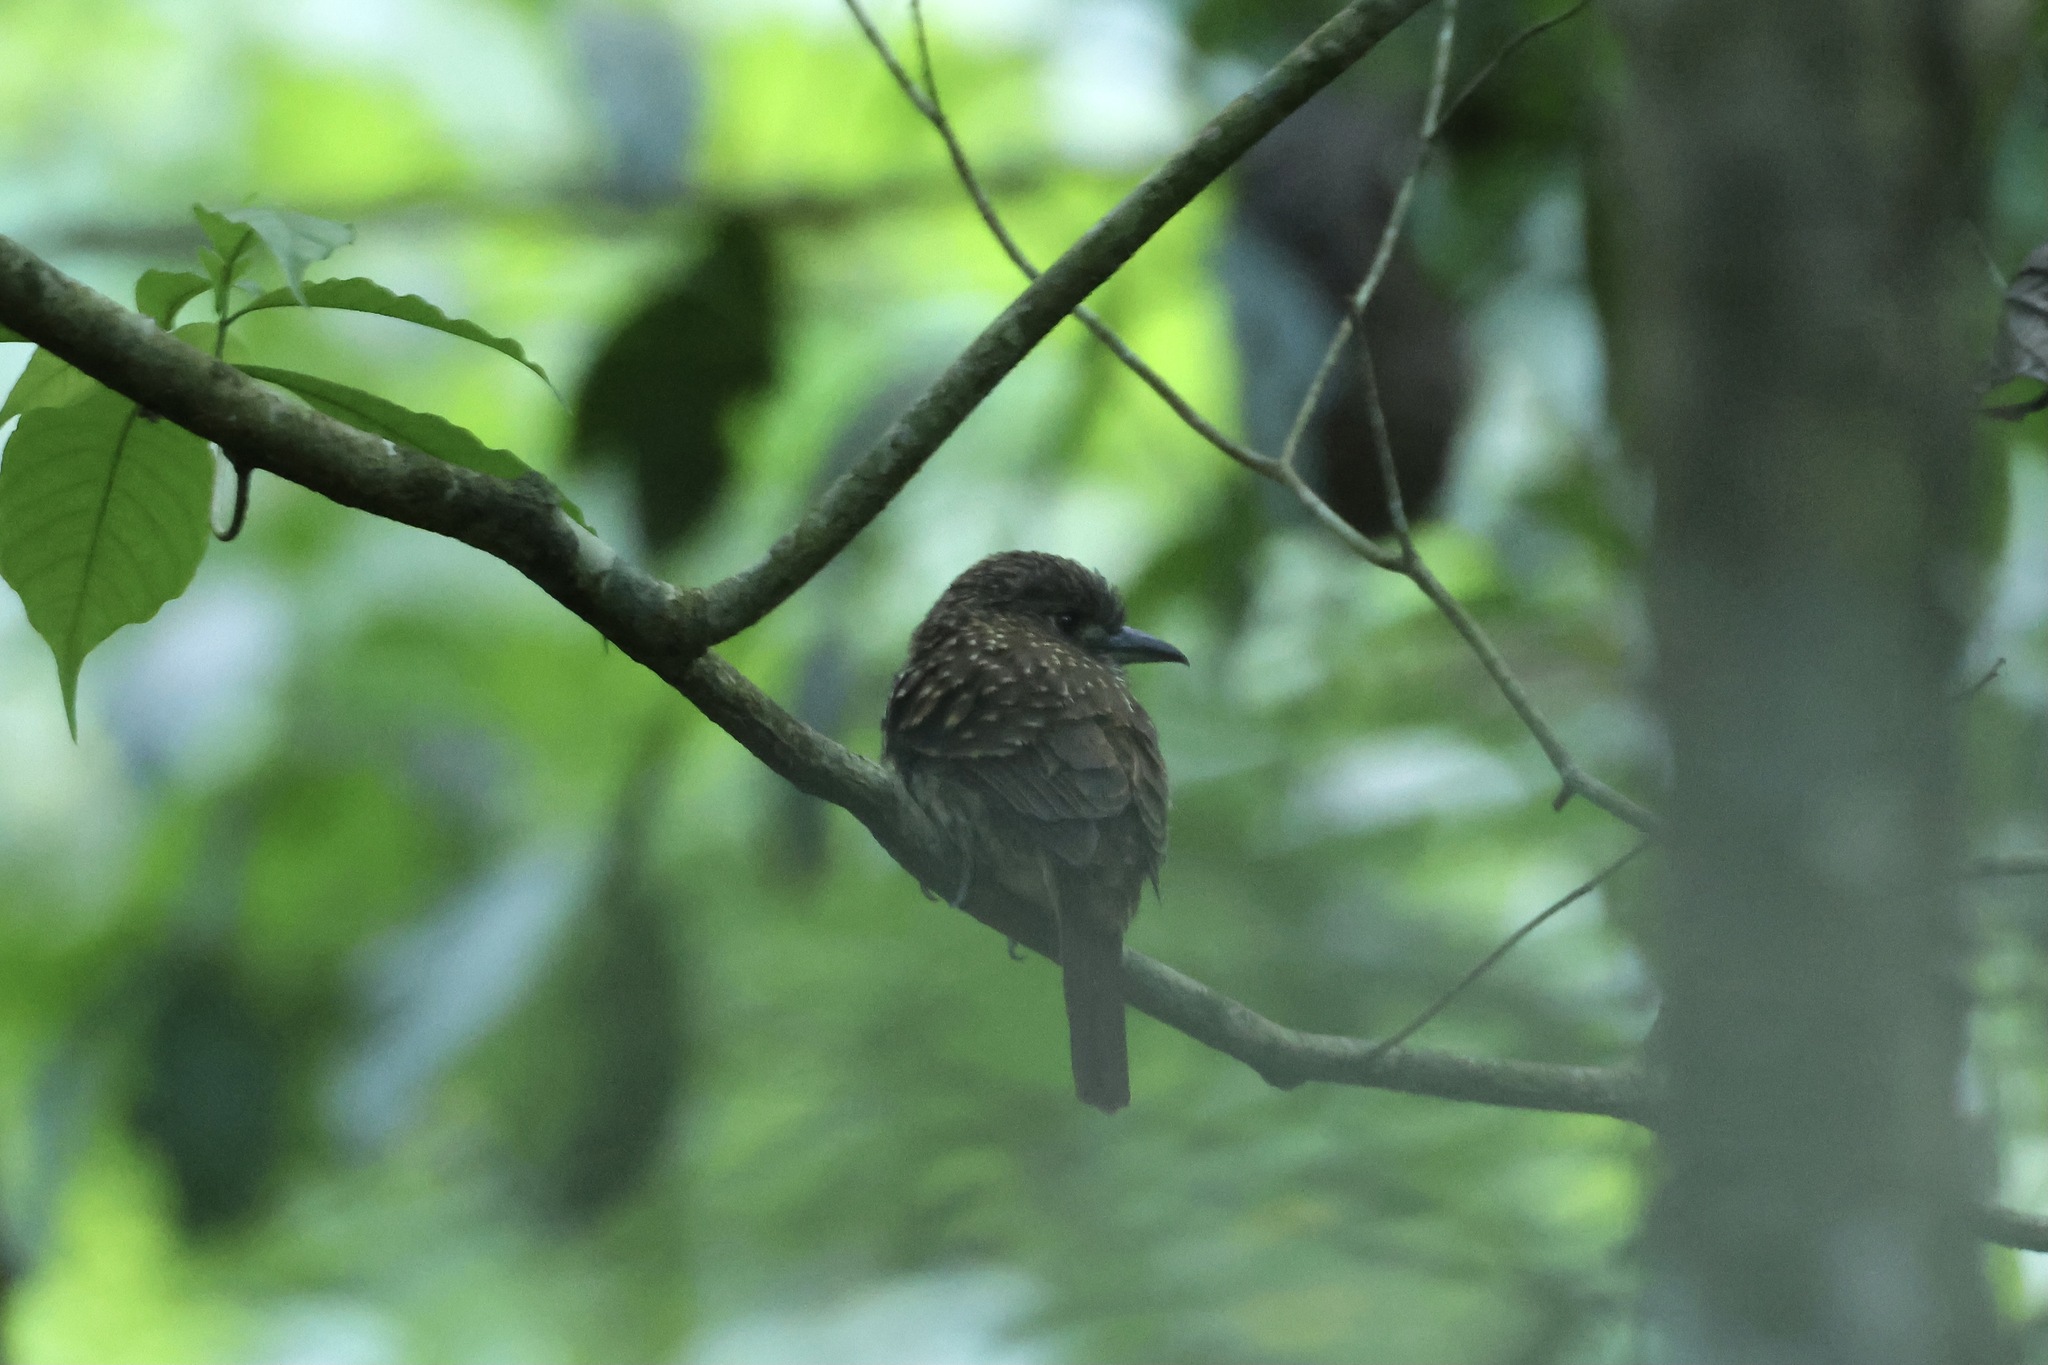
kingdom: Animalia
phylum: Chordata
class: Aves
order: Piciformes
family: Bucconidae
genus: Malacoptila
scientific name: Malacoptila panamensis
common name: White-whiskered puffbird
